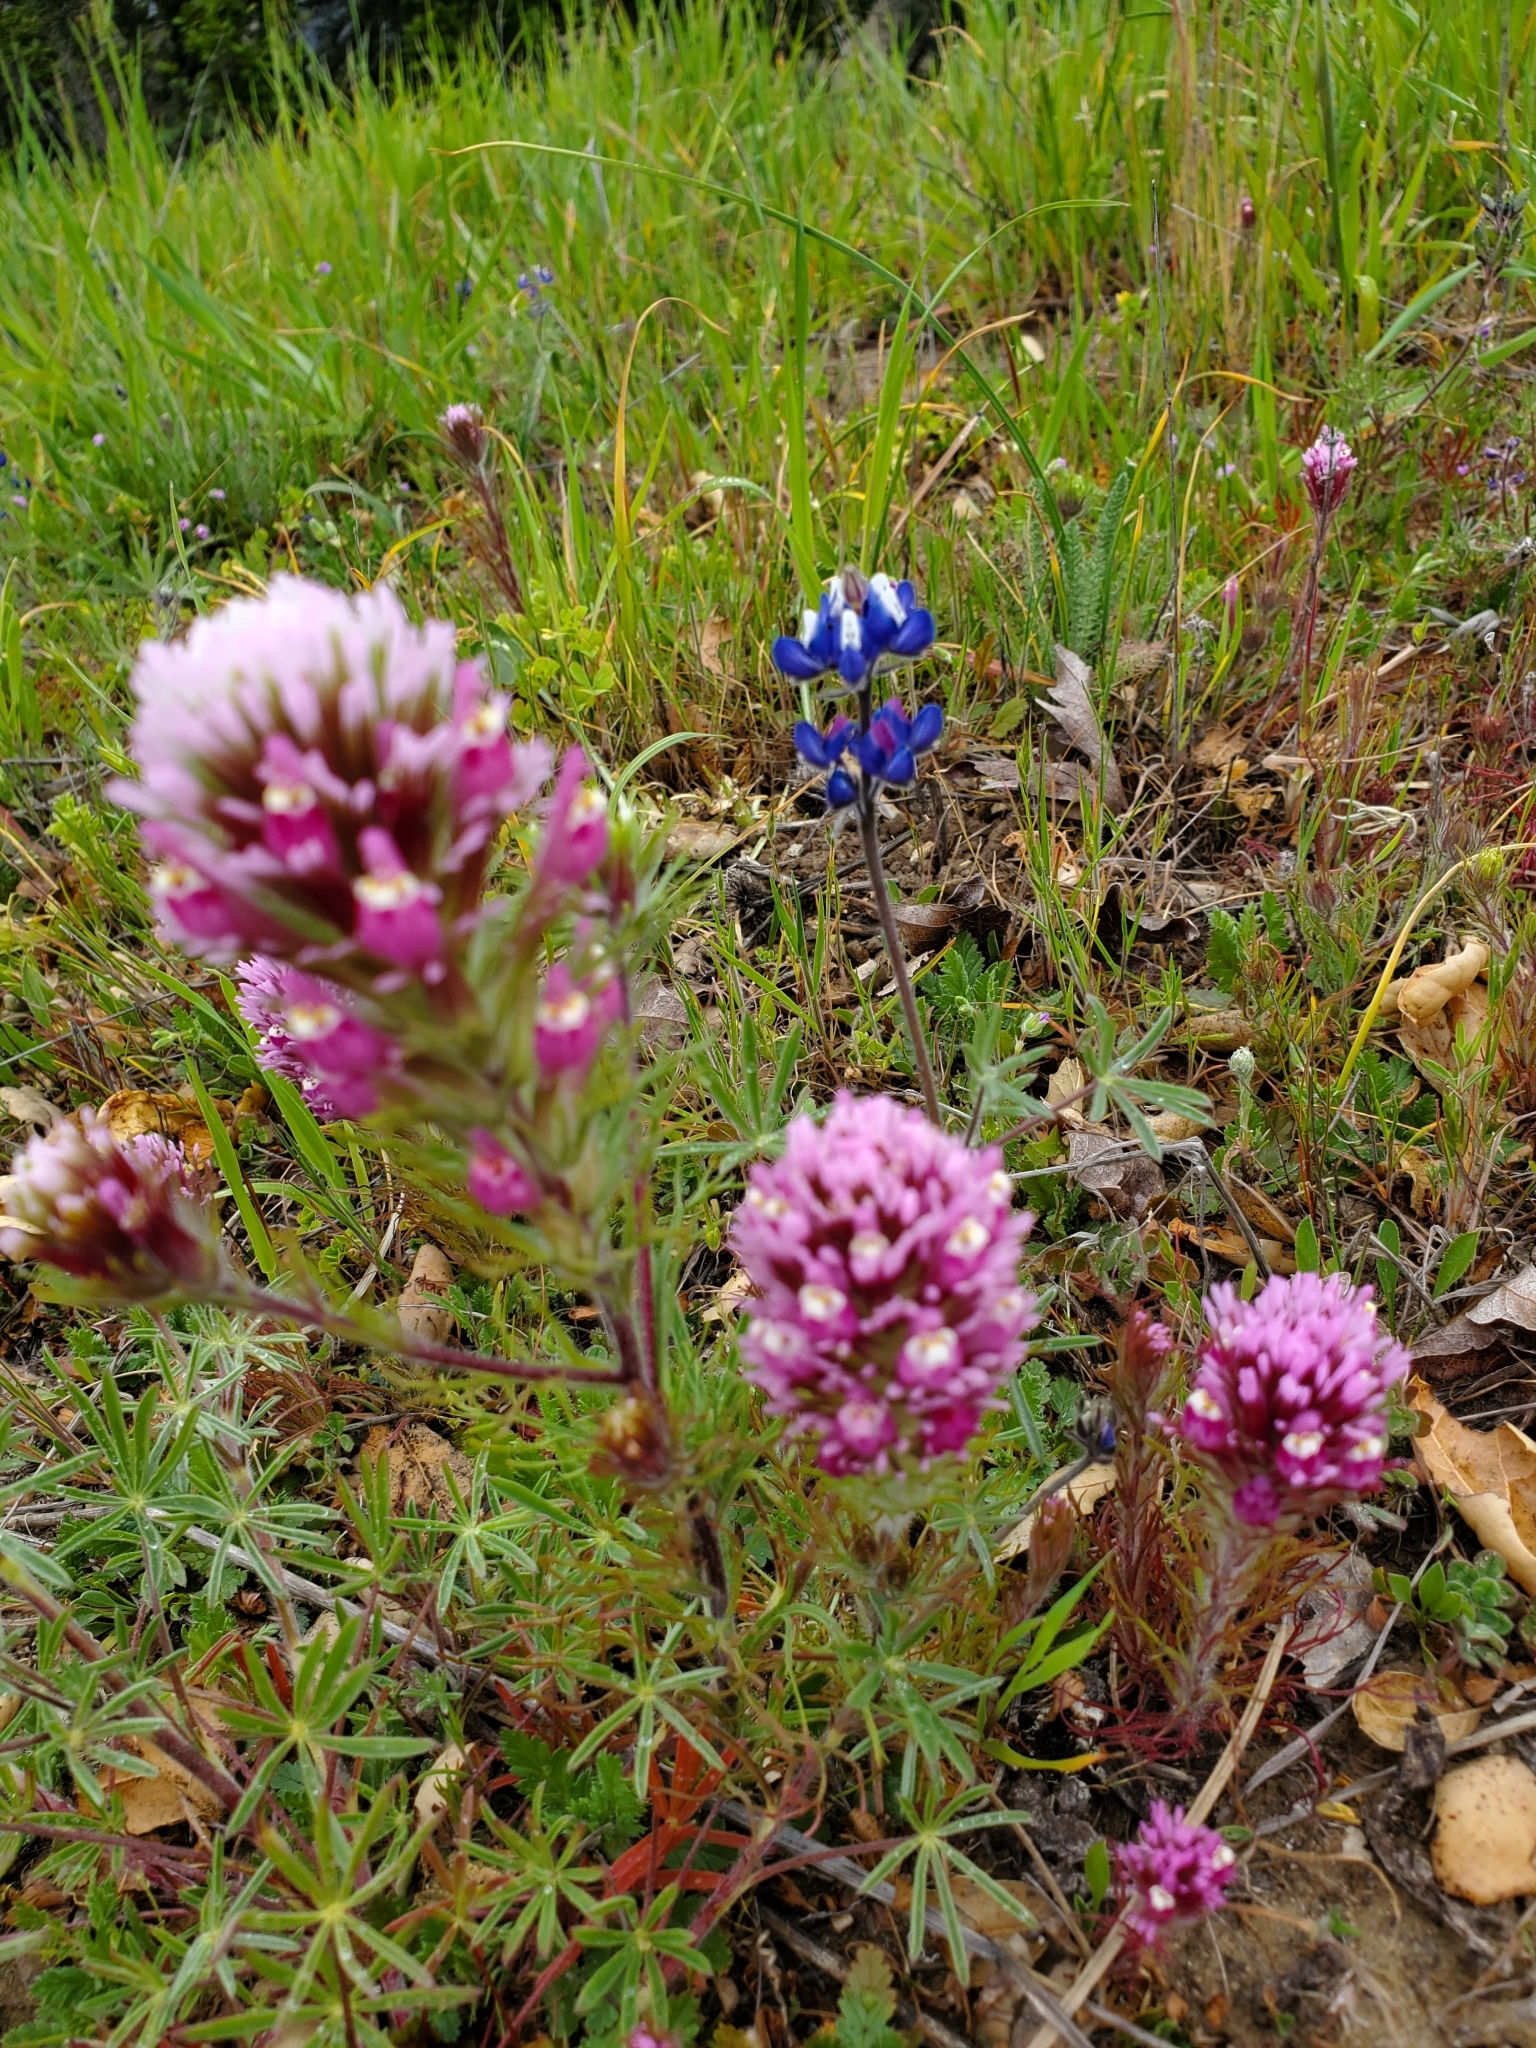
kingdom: Plantae
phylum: Tracheophyta
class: Magnoliopsida
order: Lamiales
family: Orobanchaceae
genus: Castilleja
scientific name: Castilleja exserta
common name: Purple owl-clover
